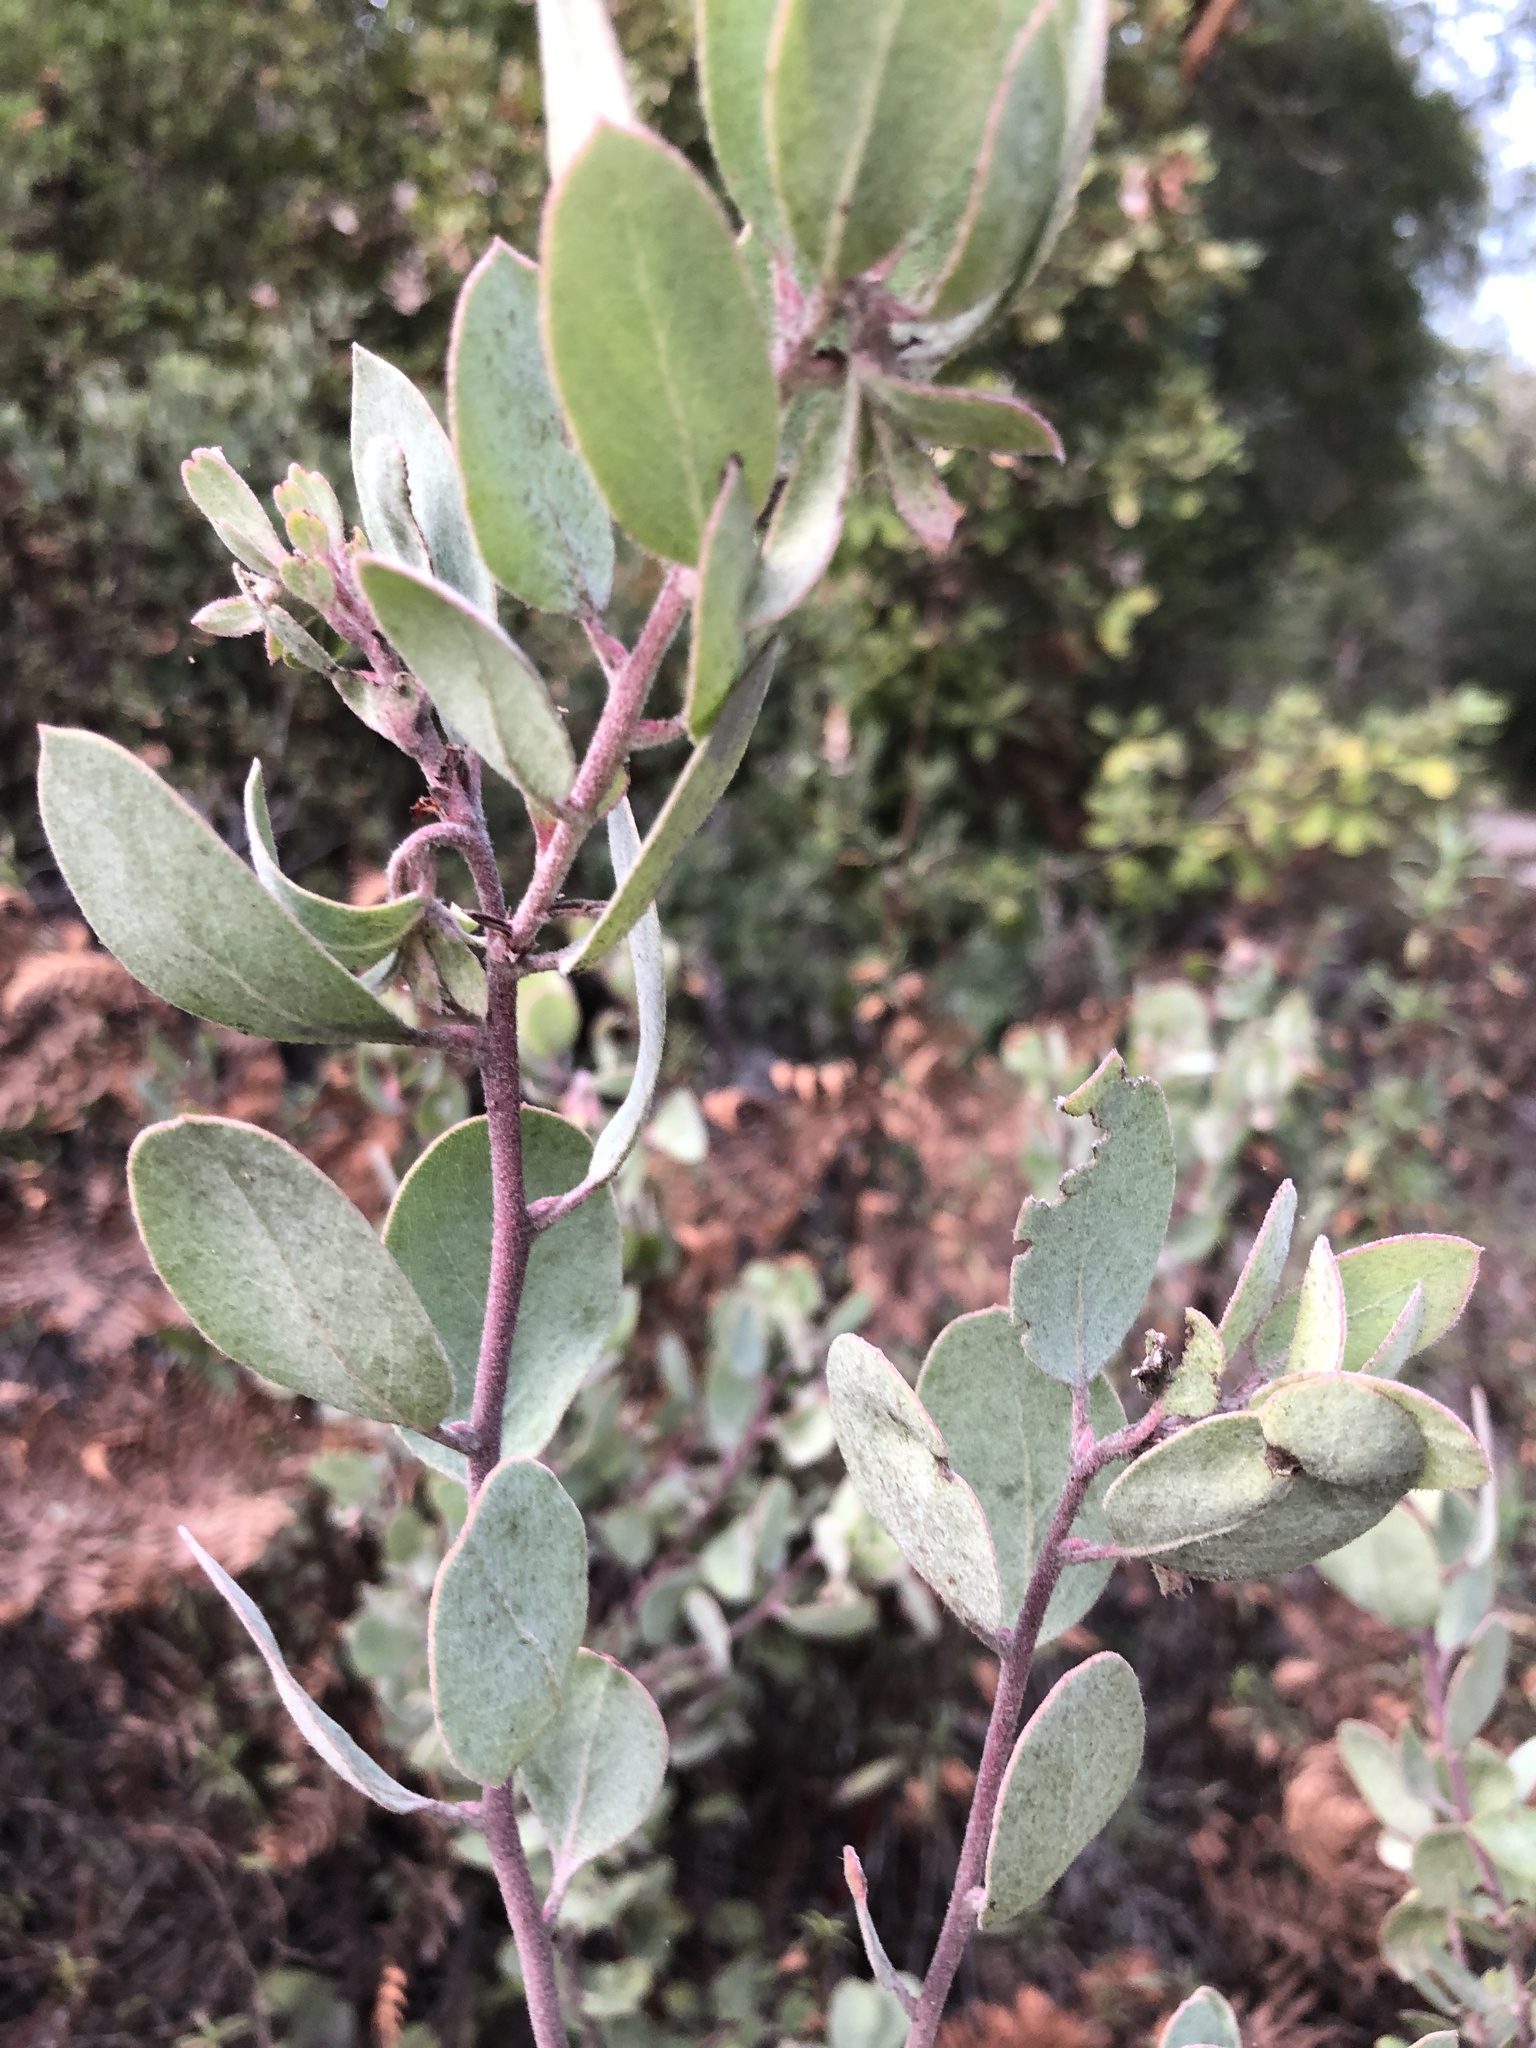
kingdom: Plantae
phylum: Tracheophyta
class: Magnoliopsida
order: Ericales
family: Ericaceae
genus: Arctostaphylos
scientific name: Arctostaphylos silvicola
